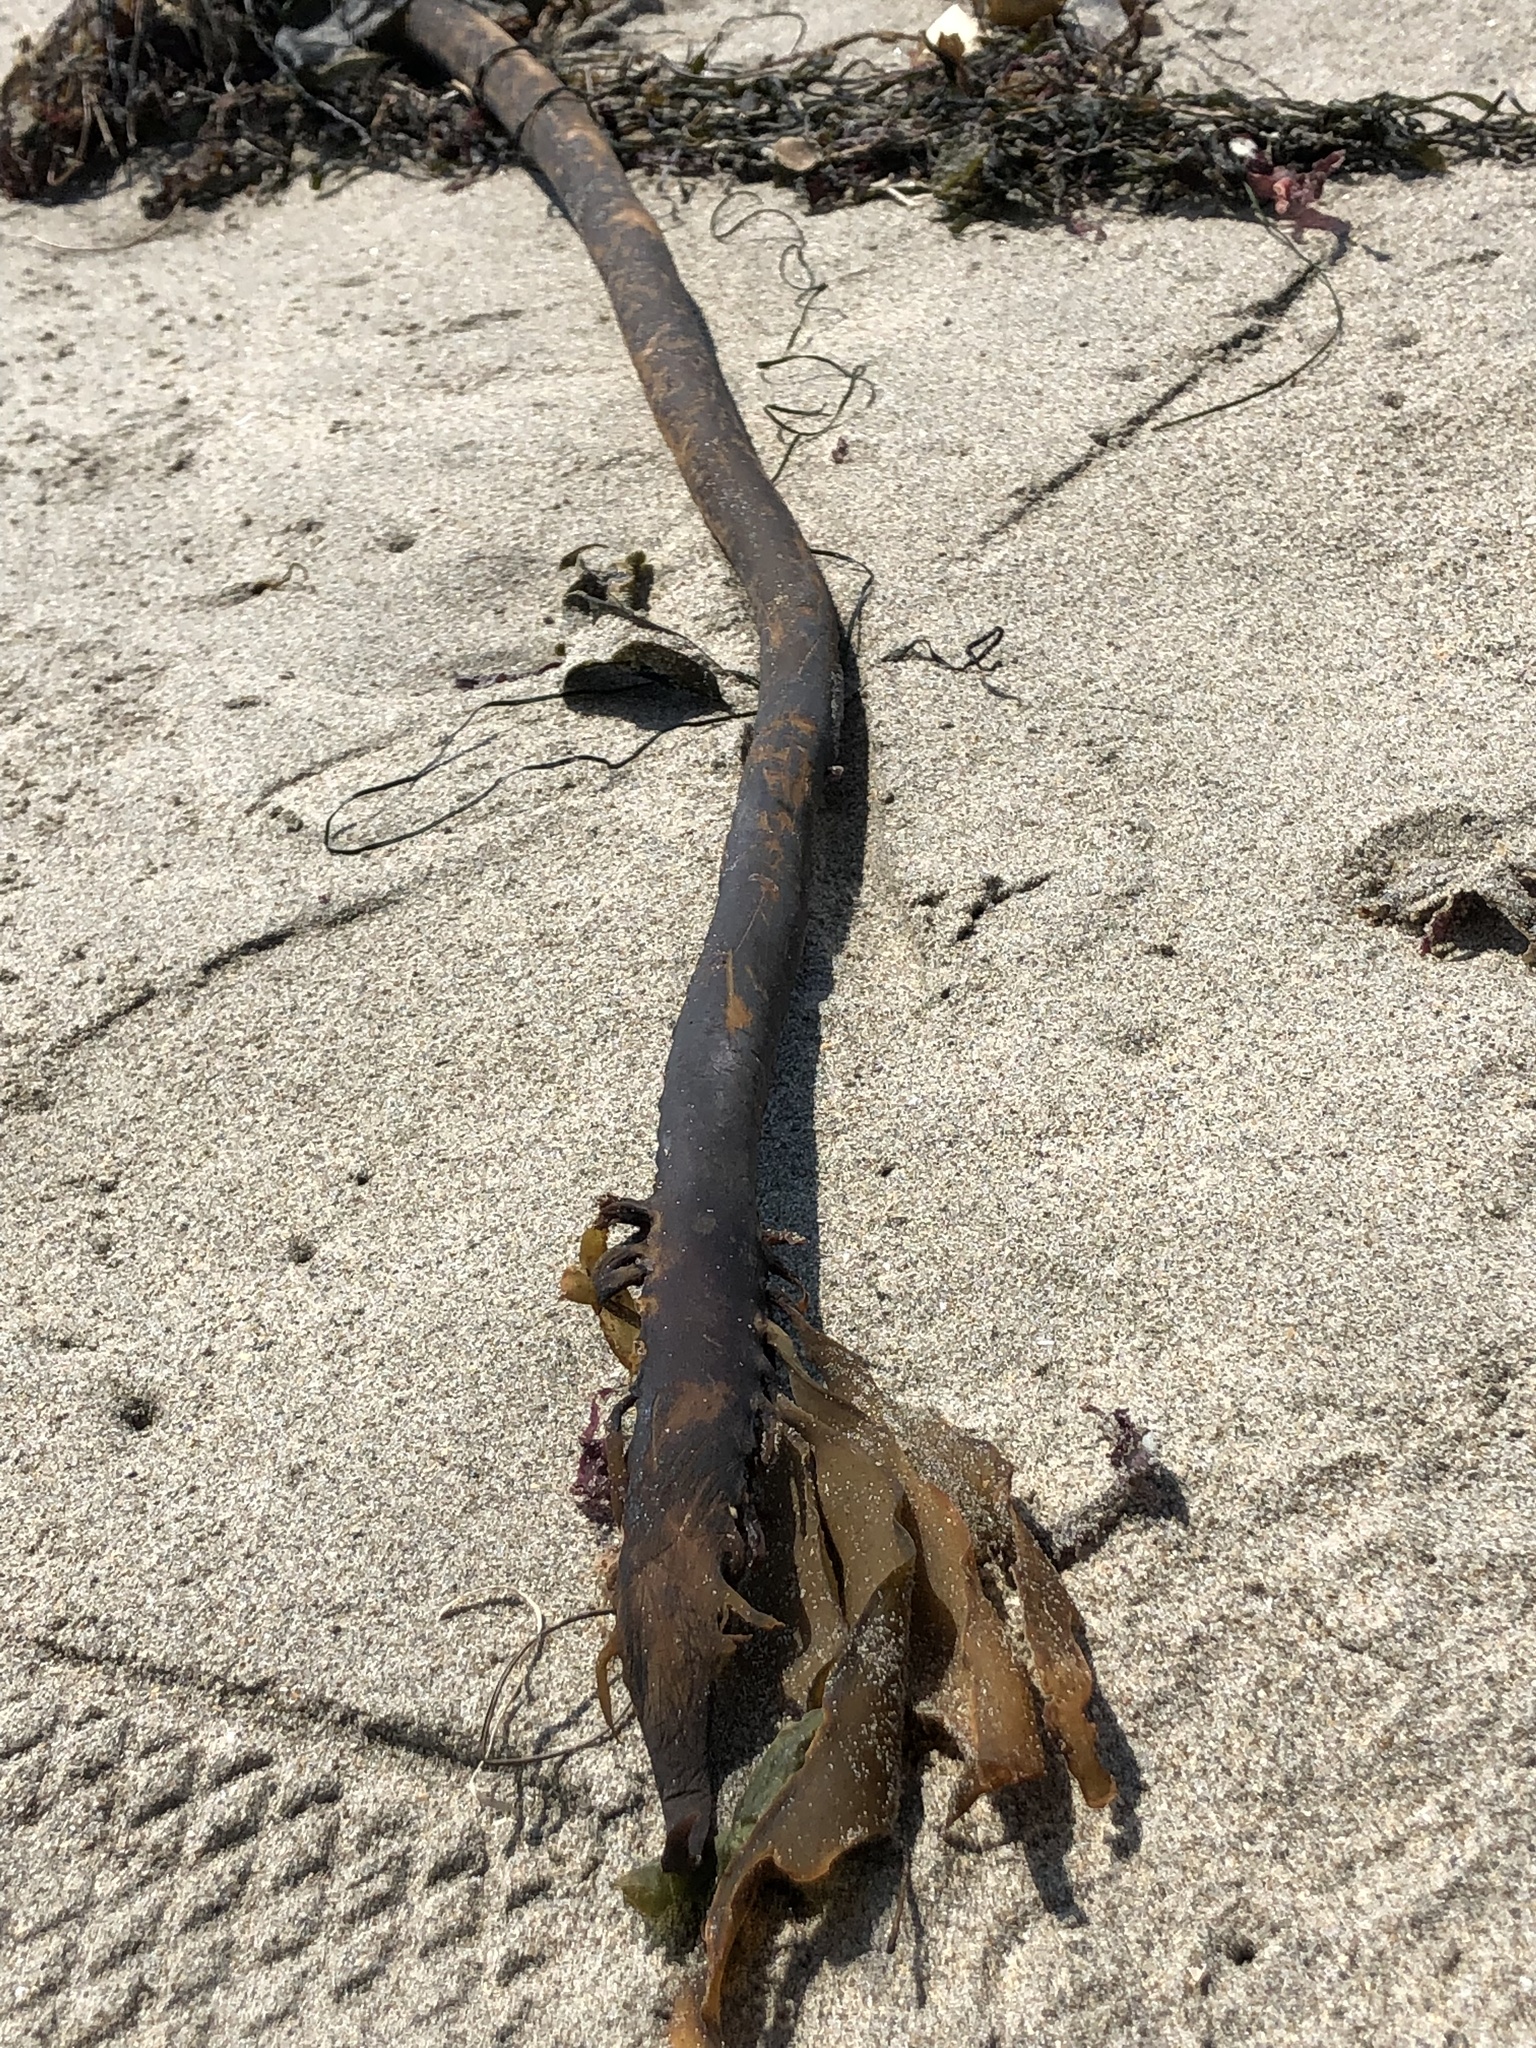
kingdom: Chromista
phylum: Ochrophyta
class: Phaeophyceae
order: Laminariales
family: Alariaceae
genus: Pterygophora
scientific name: Pterygophora californica
